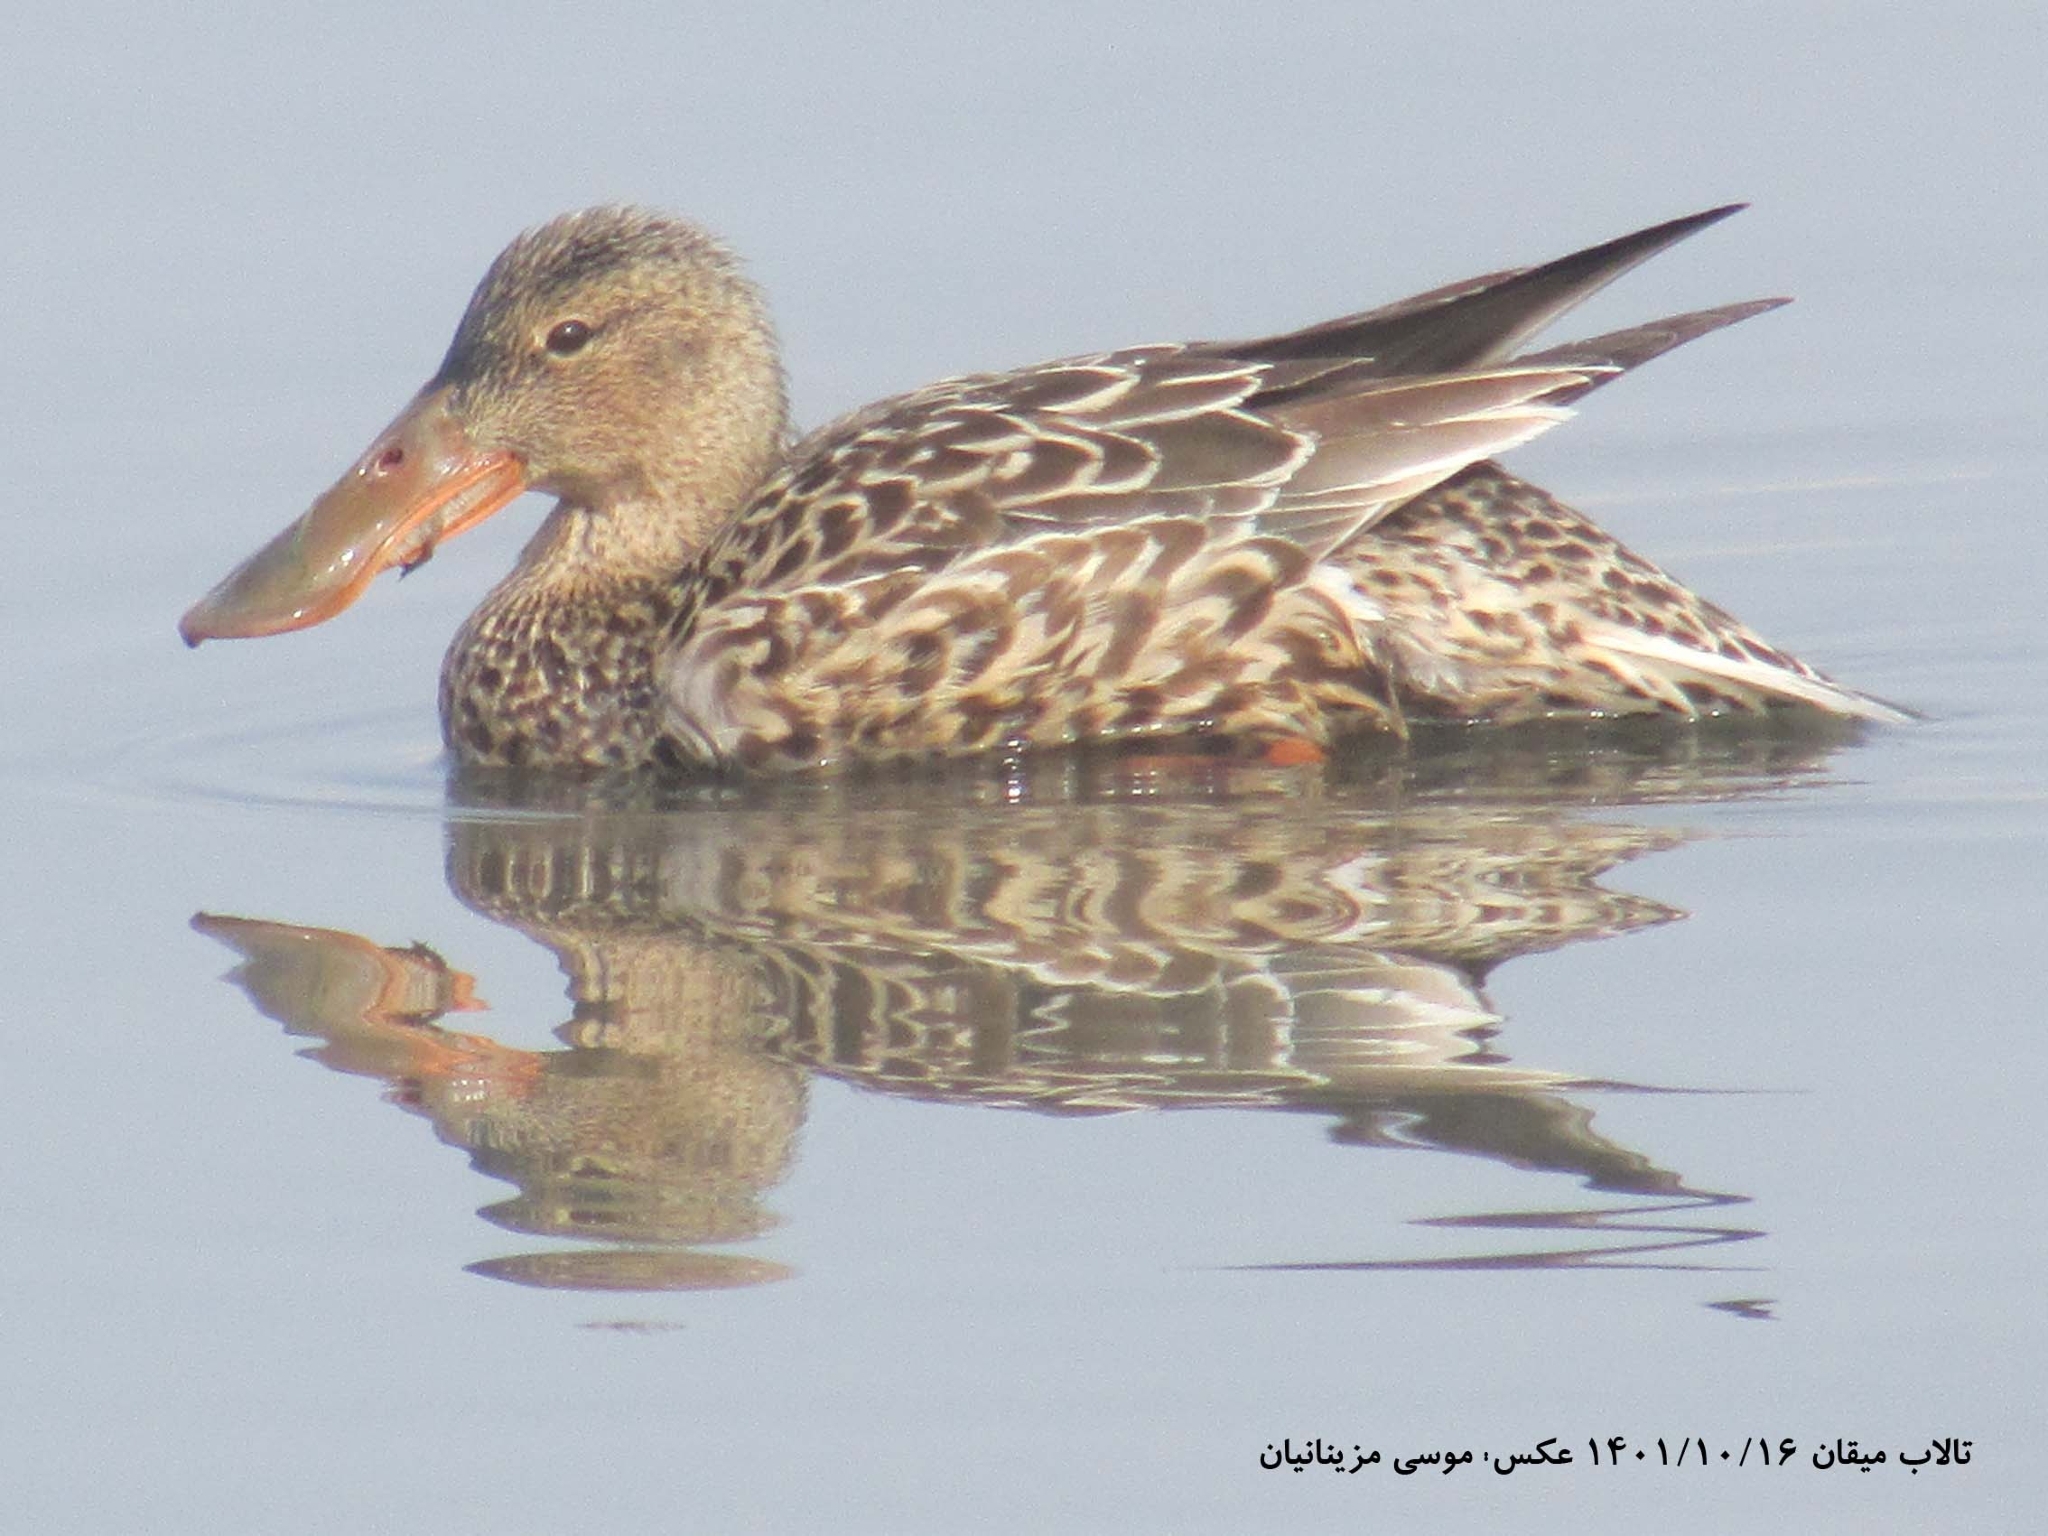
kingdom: Animalia
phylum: Chordata
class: Aves
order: Anseriformes
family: Anatidae
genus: Spatula
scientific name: Spatula clypeata
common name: Northern shoveler
